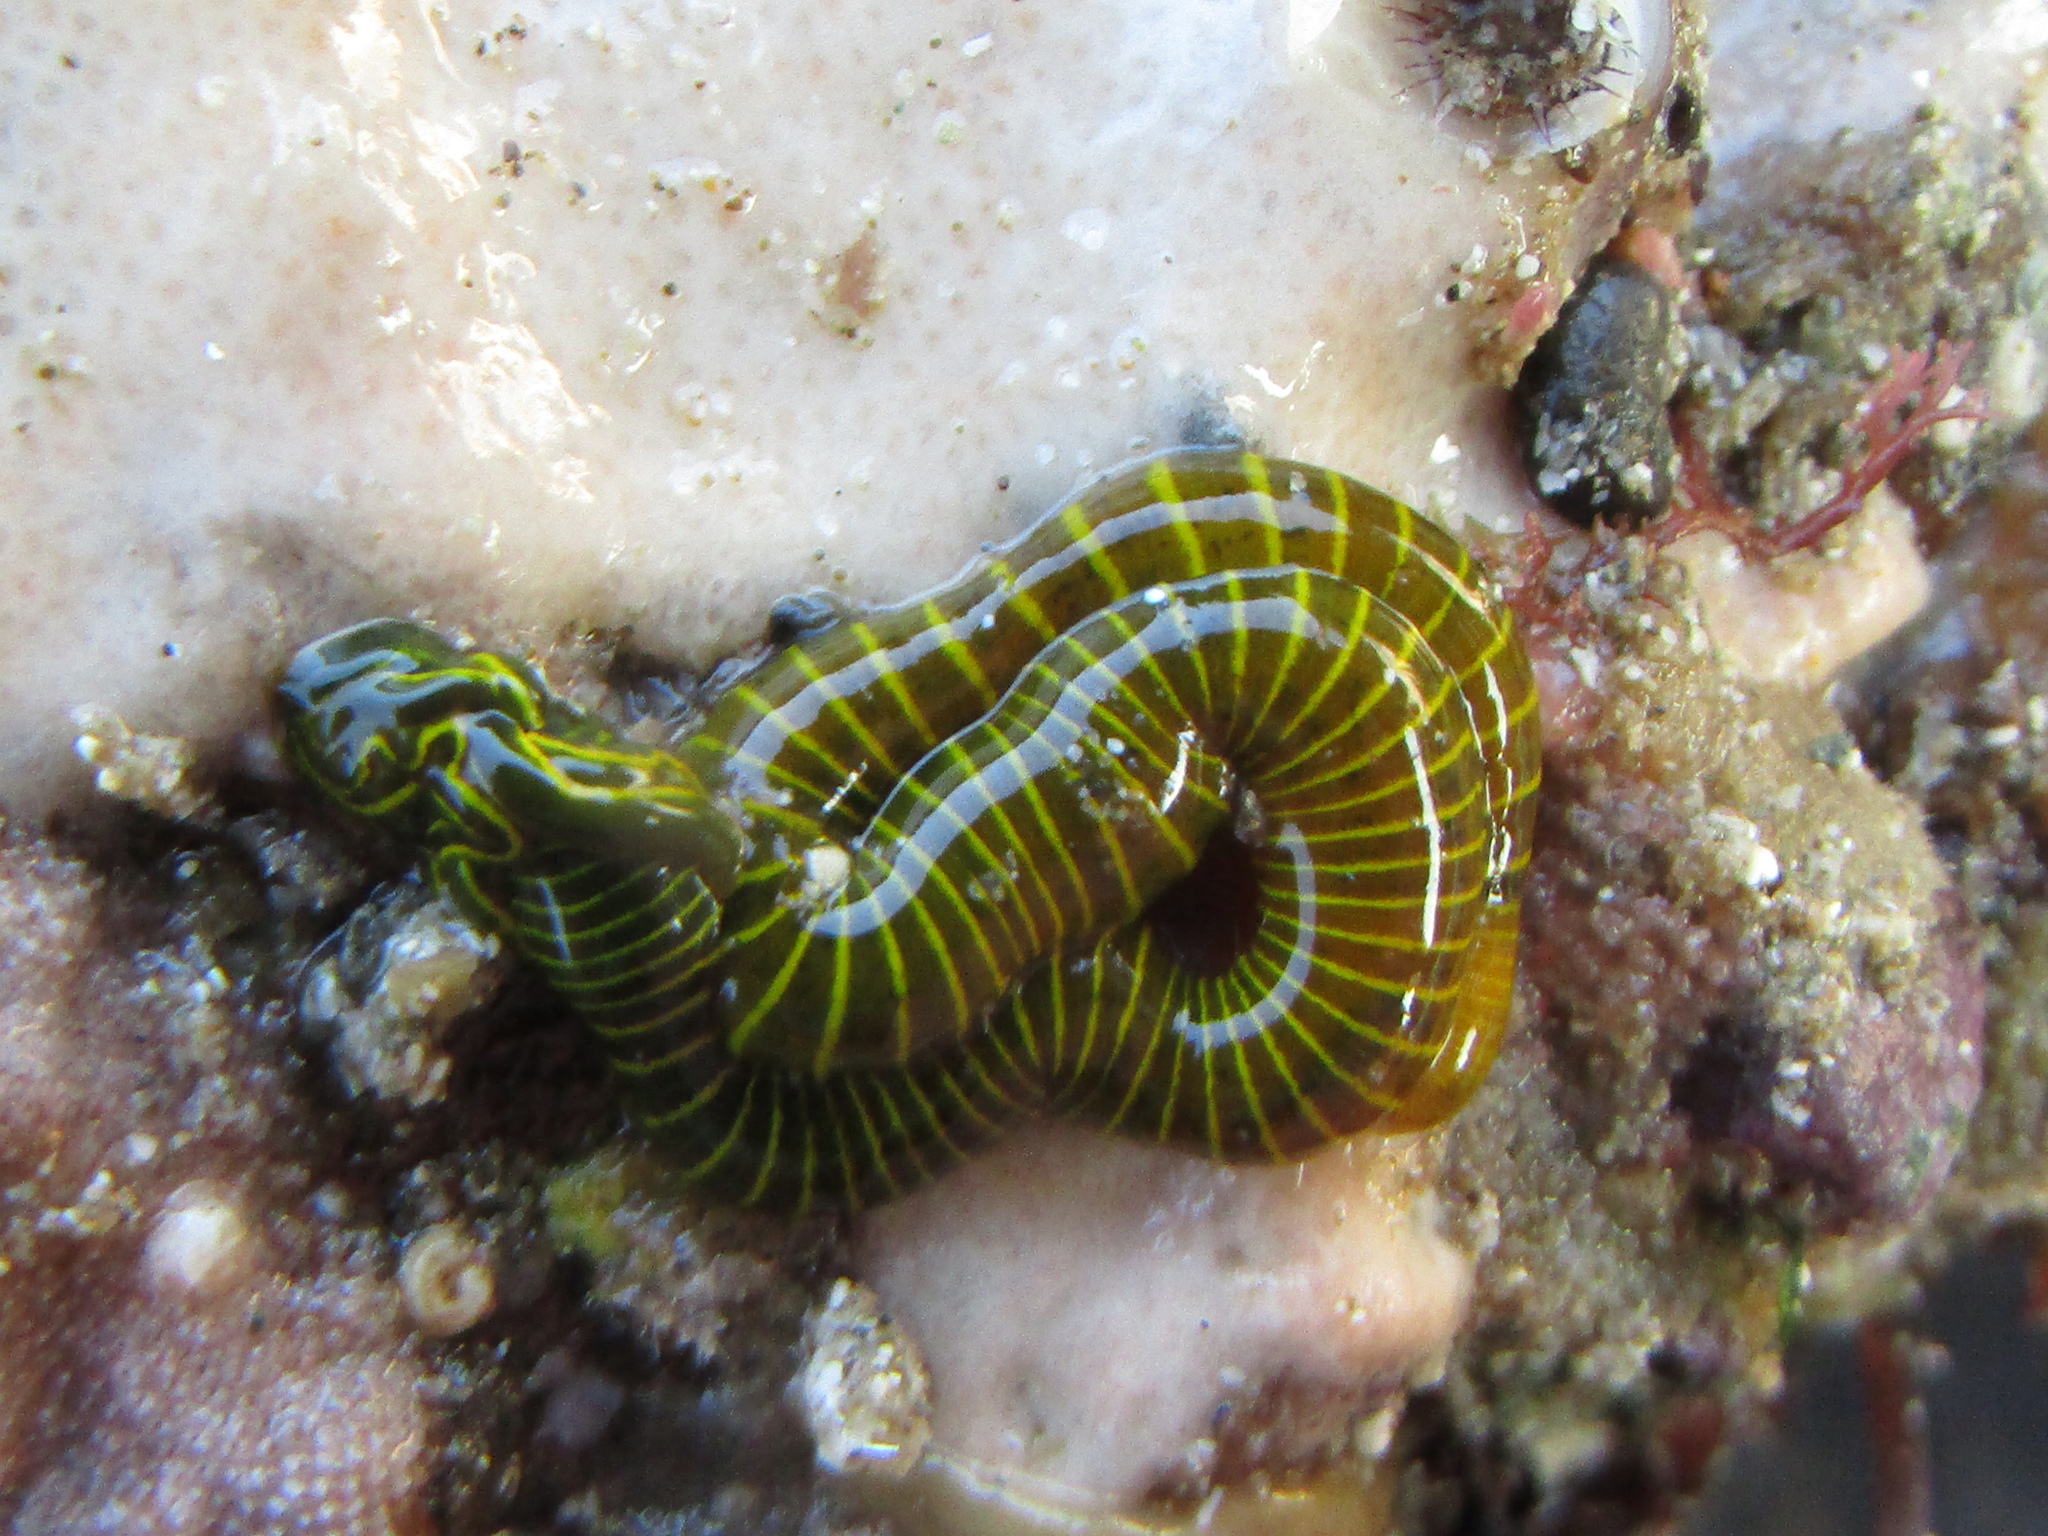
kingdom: Animalia
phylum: Annelida
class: Polychaeta
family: Acrocirridae
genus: Acrocirrus
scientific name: Acrocirrus
